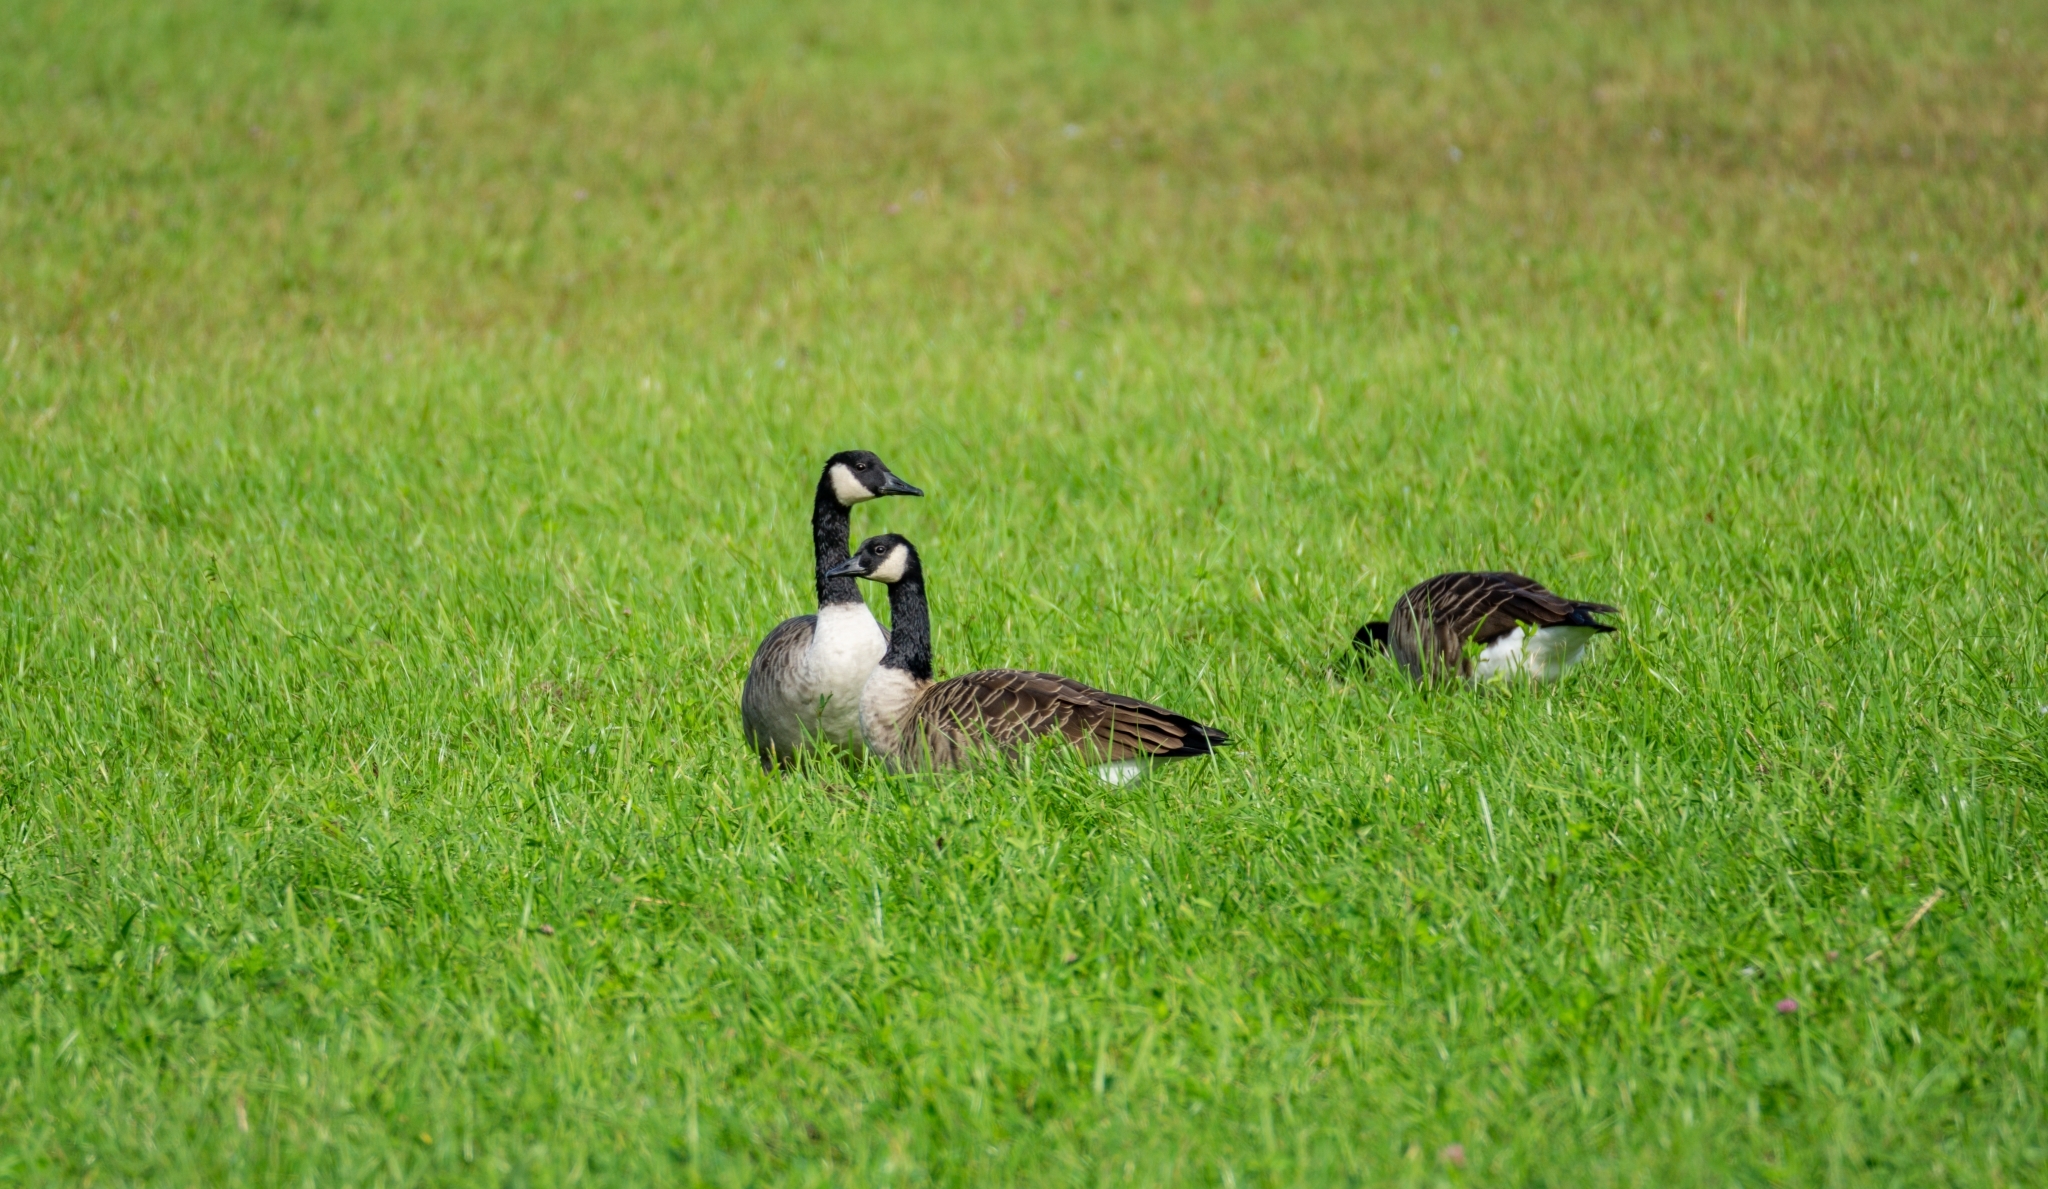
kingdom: Animalia
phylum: Chordata
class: Aves
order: Anseriformes
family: Anatidae
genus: Branta
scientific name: Branta canadensis
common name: Canada goose
